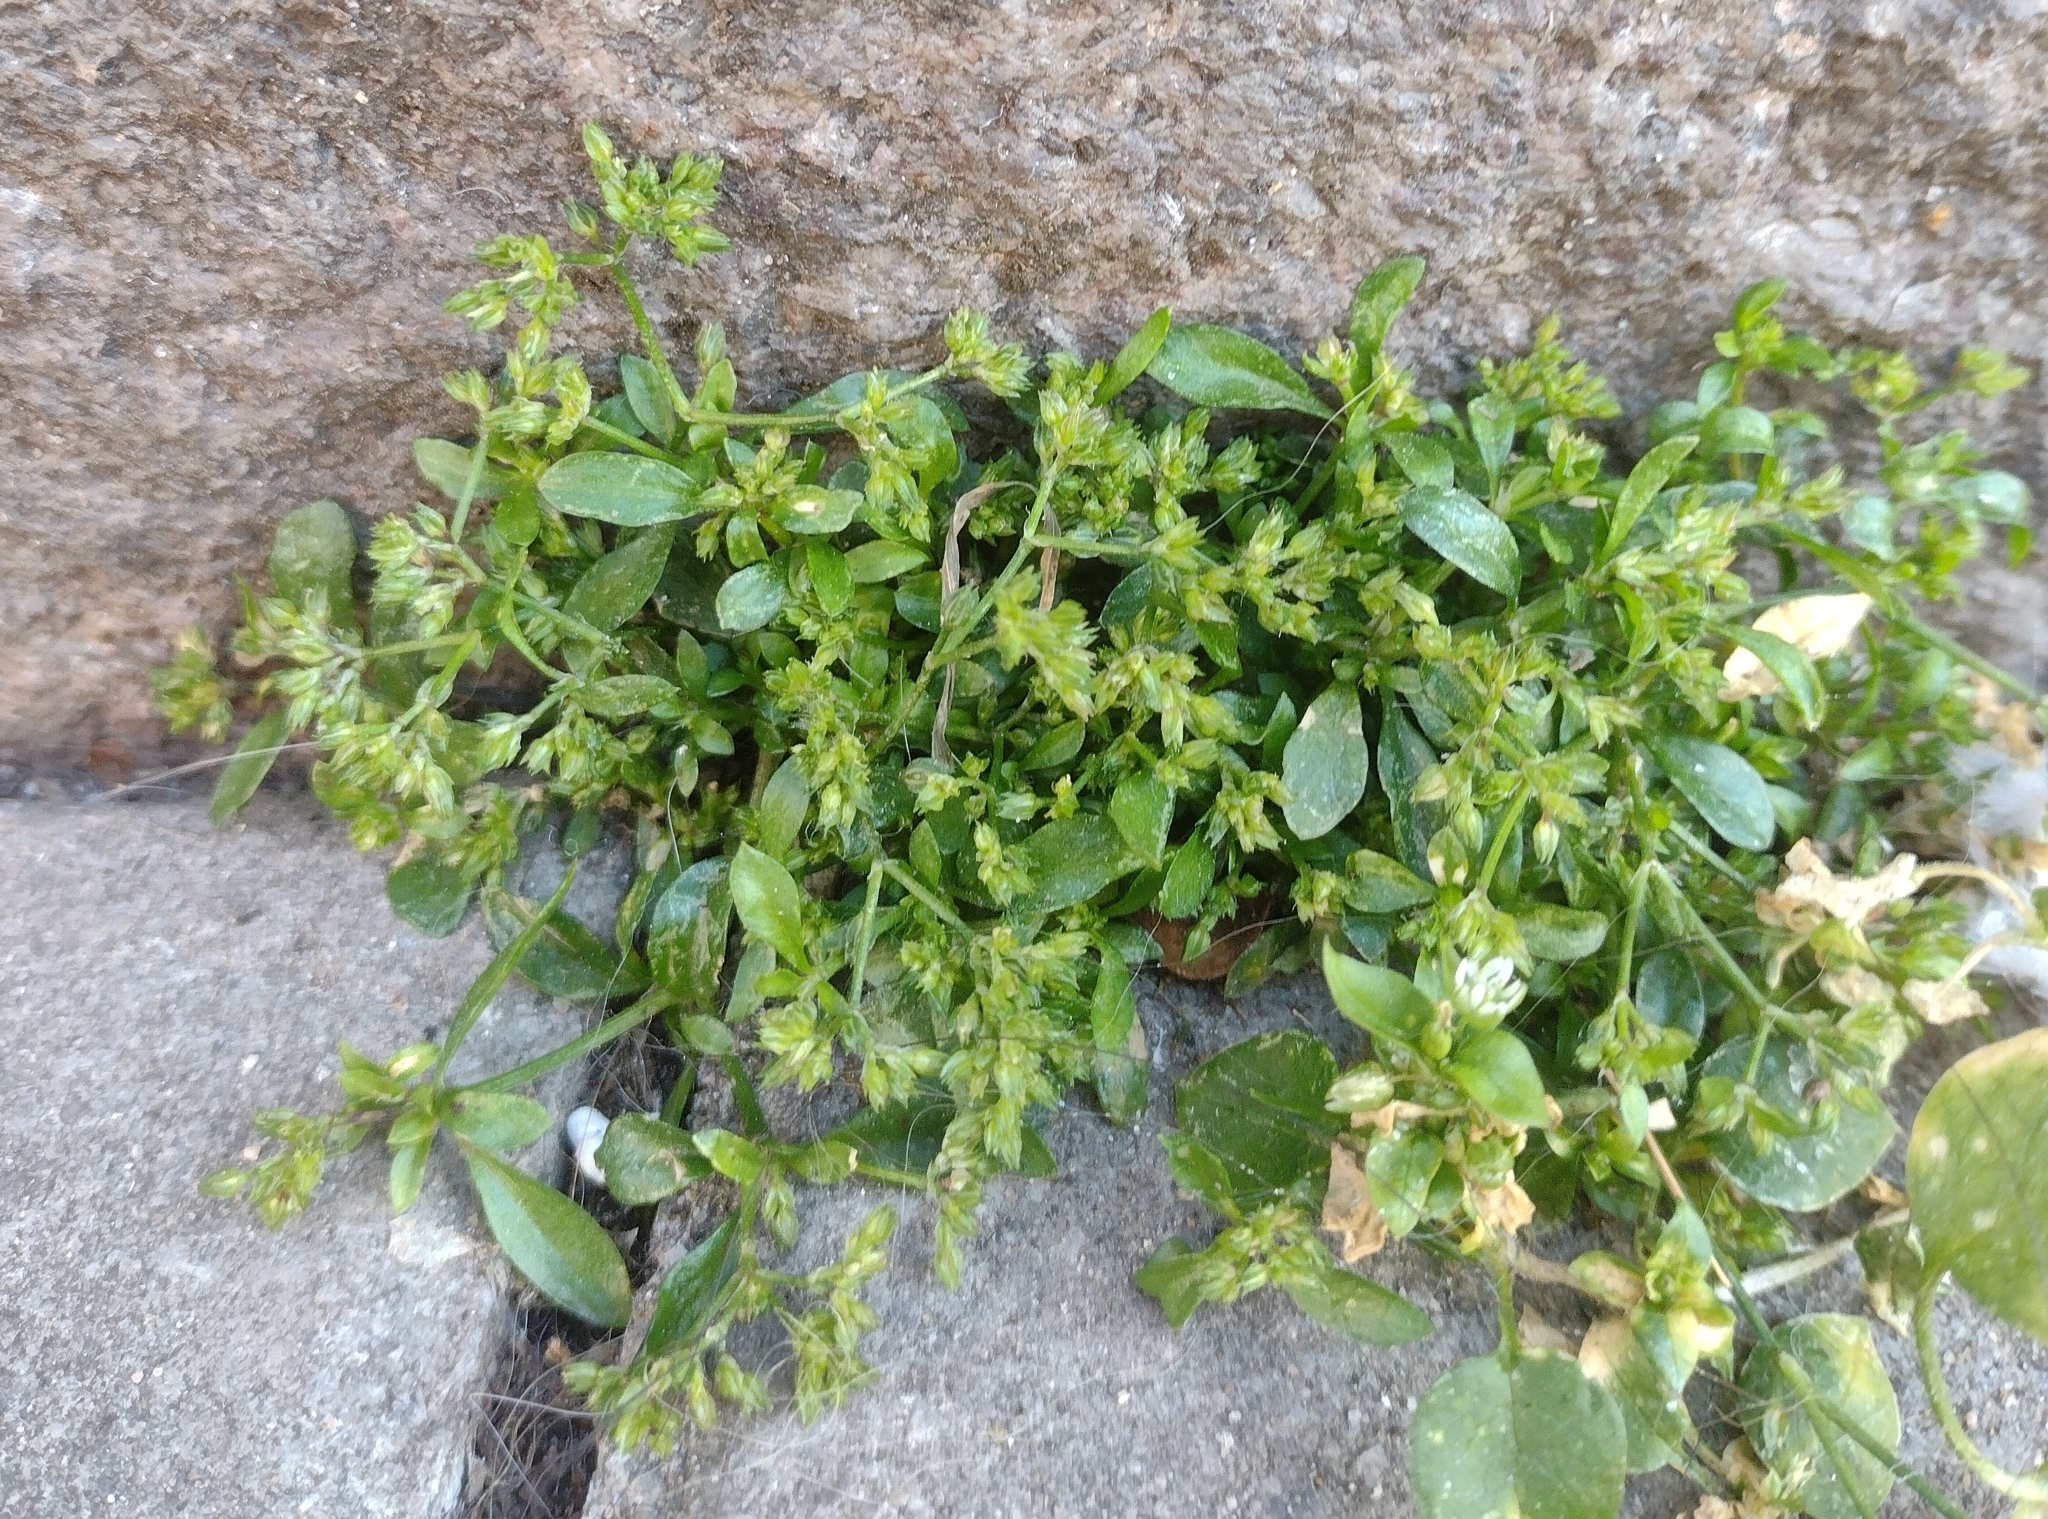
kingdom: Plantae
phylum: Tracheophyta
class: Magnoliopsida
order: Caryophyllales
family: Caryophyllaceae
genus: Polycarpon
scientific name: Polycarpon tetraphyllum
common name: Four-leaved all-seed
